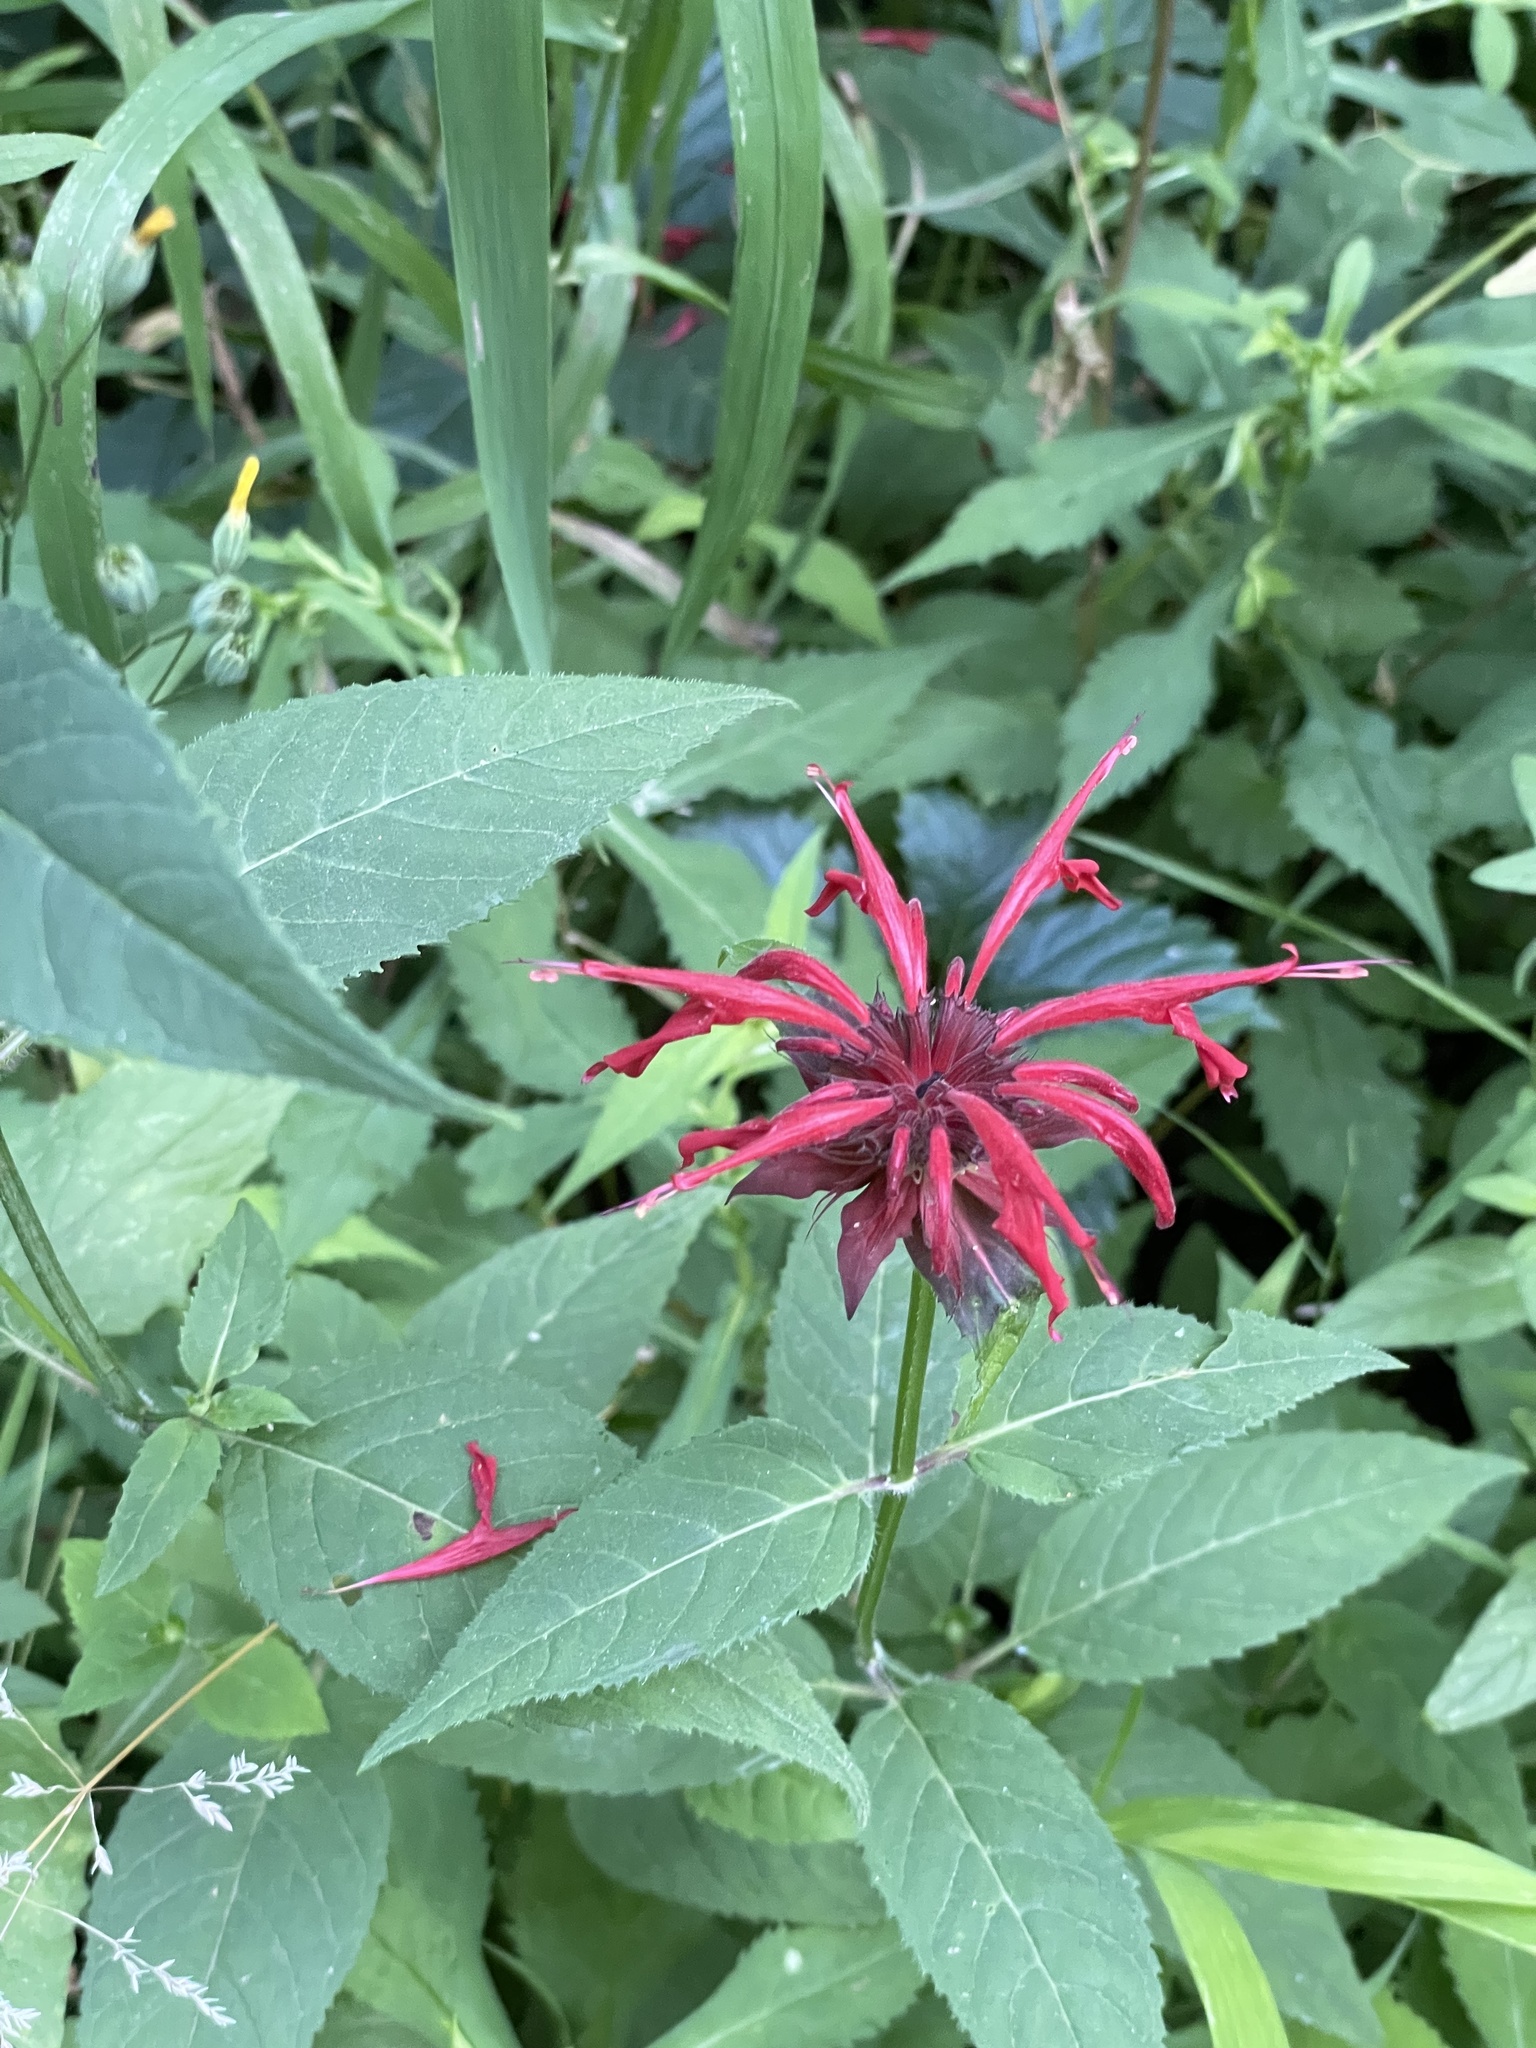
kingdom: Plantae
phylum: Tracheophyta
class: Magnoliopsida
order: Lamiales
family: Lamiaceae
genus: Monarda
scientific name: Monarda didyma
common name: Beebalm
